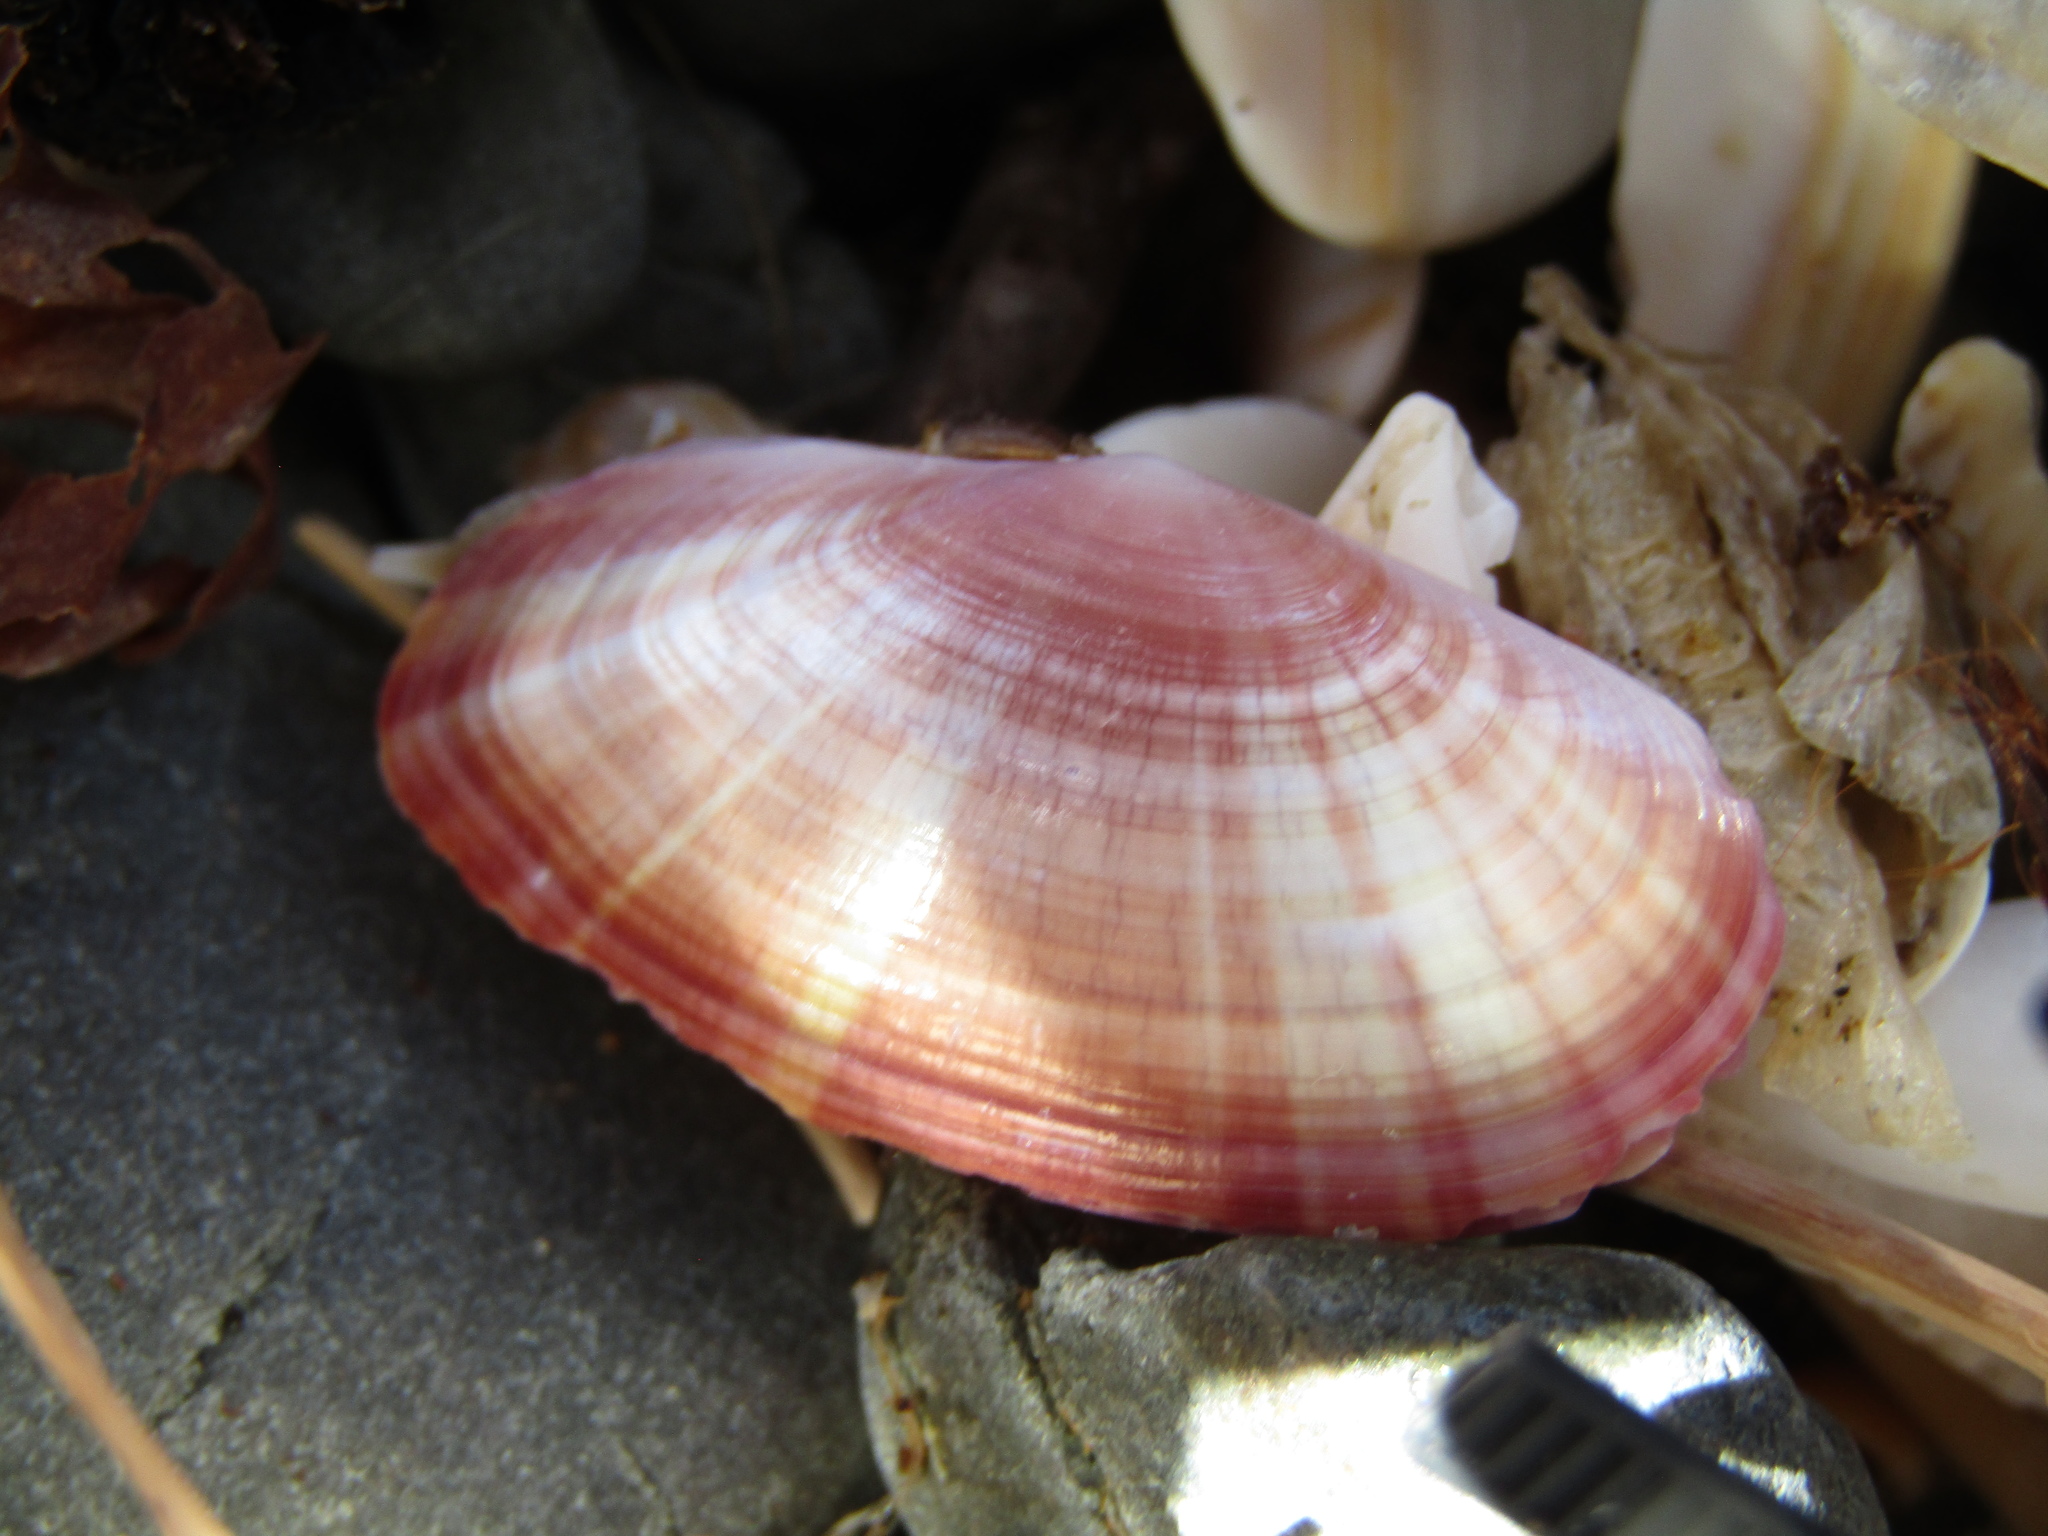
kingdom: Animalia
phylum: Mollusca
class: Bivalvia
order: Cardiida
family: Psammobiidae
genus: Gari
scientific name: Gari convexa
